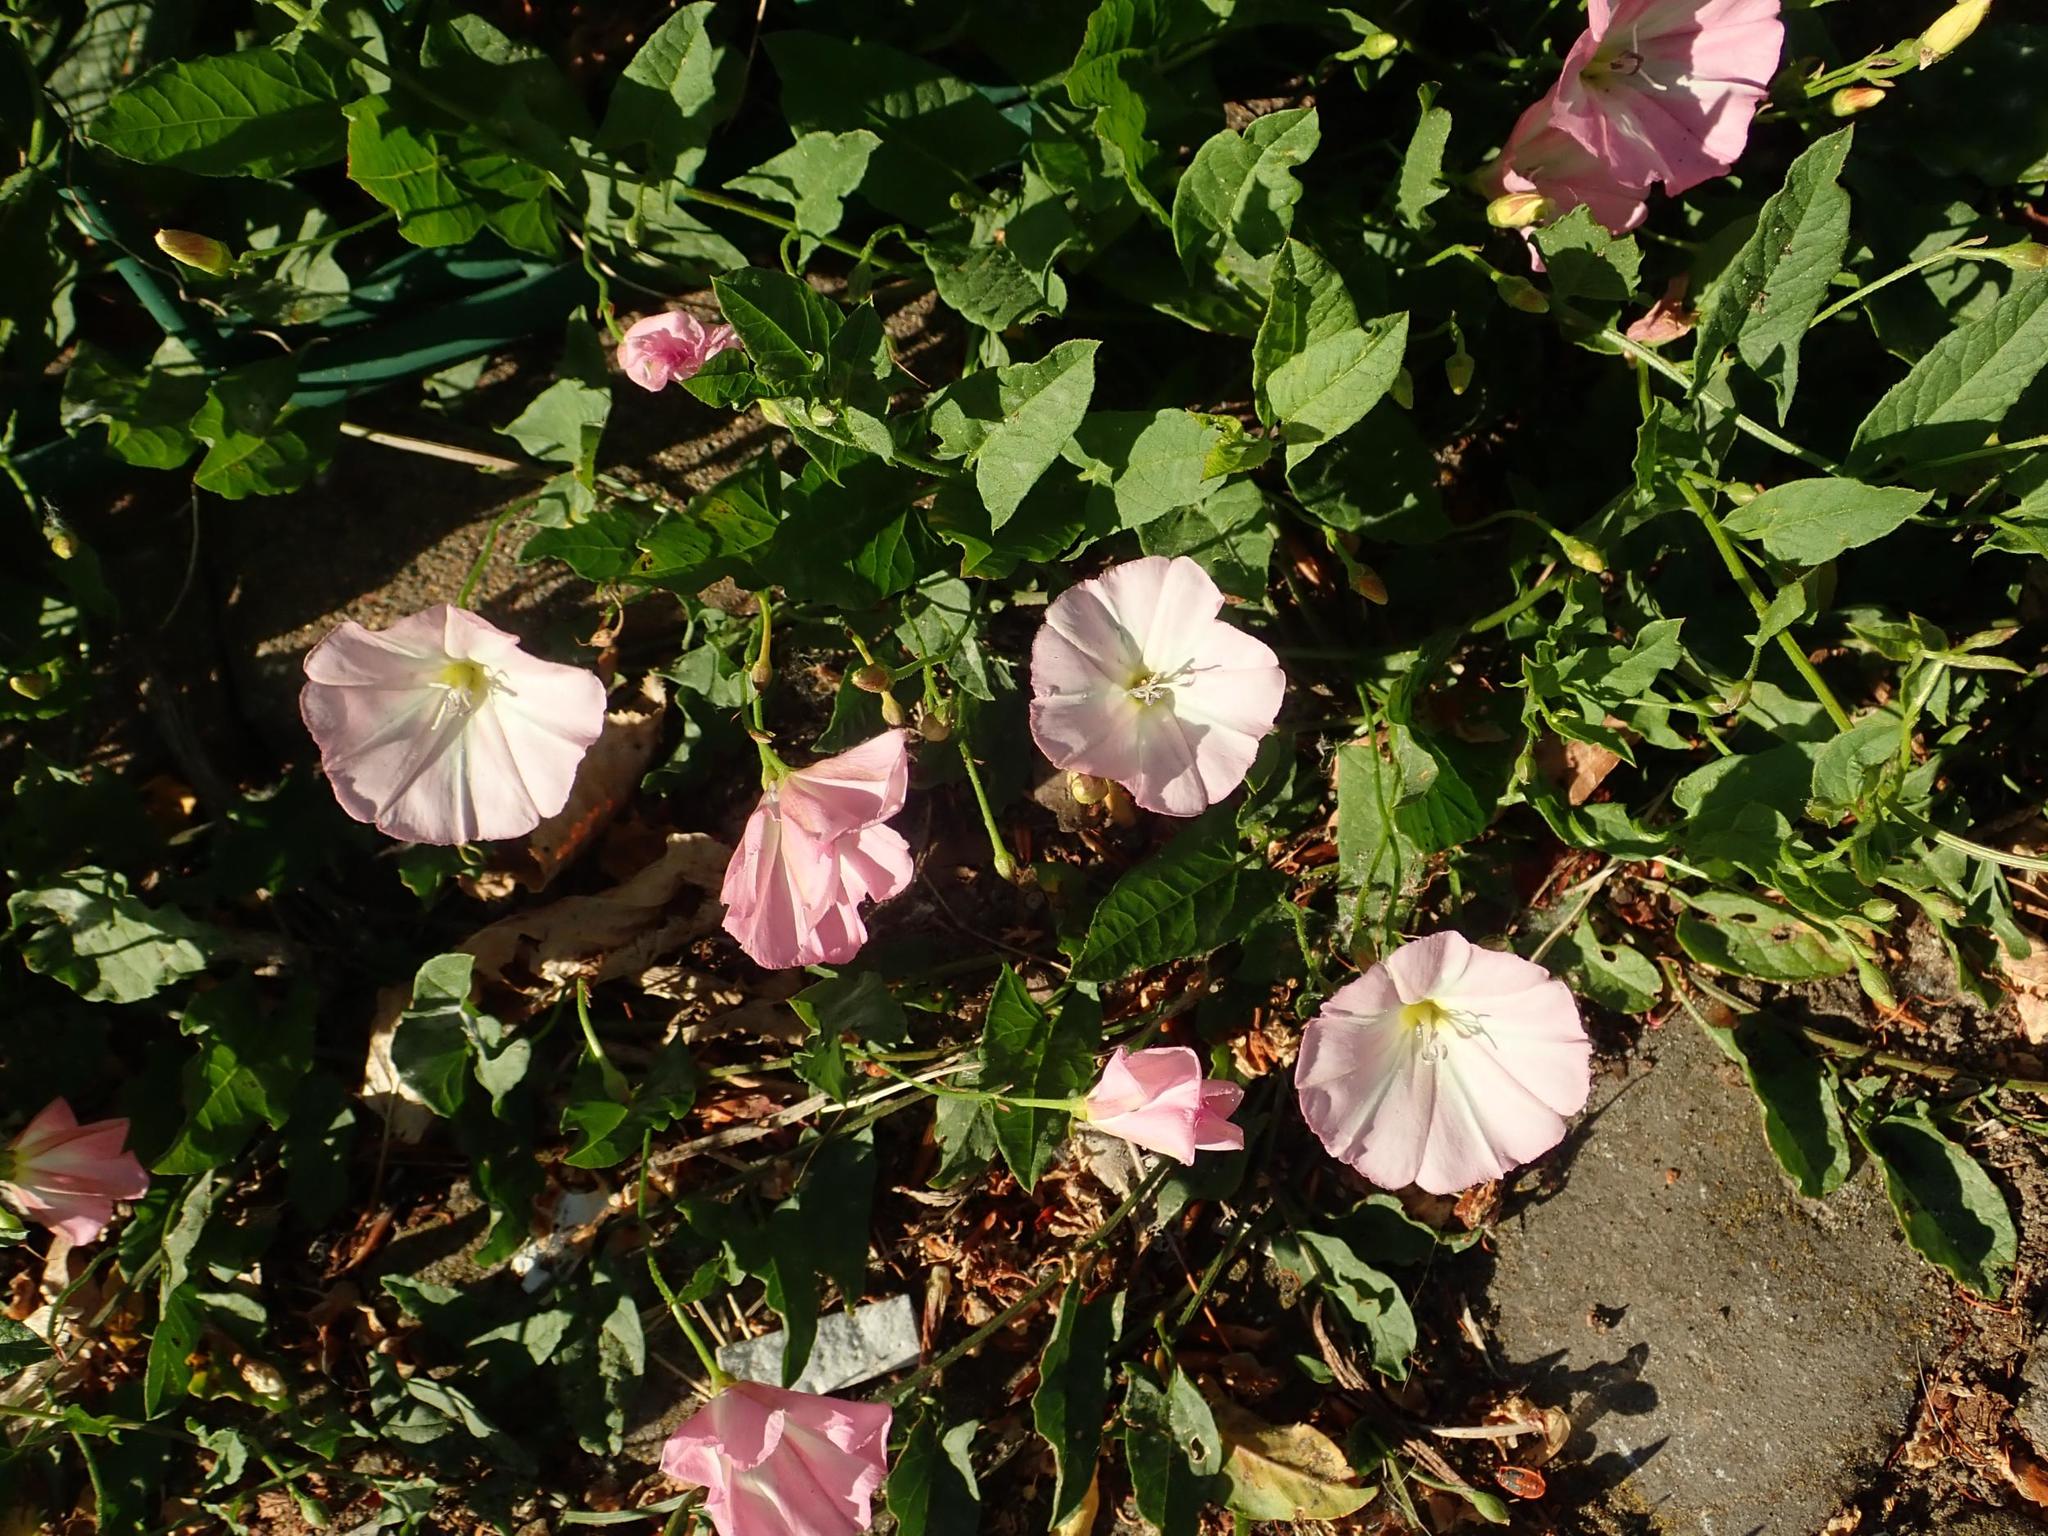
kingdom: Plantae
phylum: Tracheophyta
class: Magnoliopsida
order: Solanales
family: Convolvulaceae
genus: Convolvulus
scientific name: Convolvulus arvensis
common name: Field bindweed
